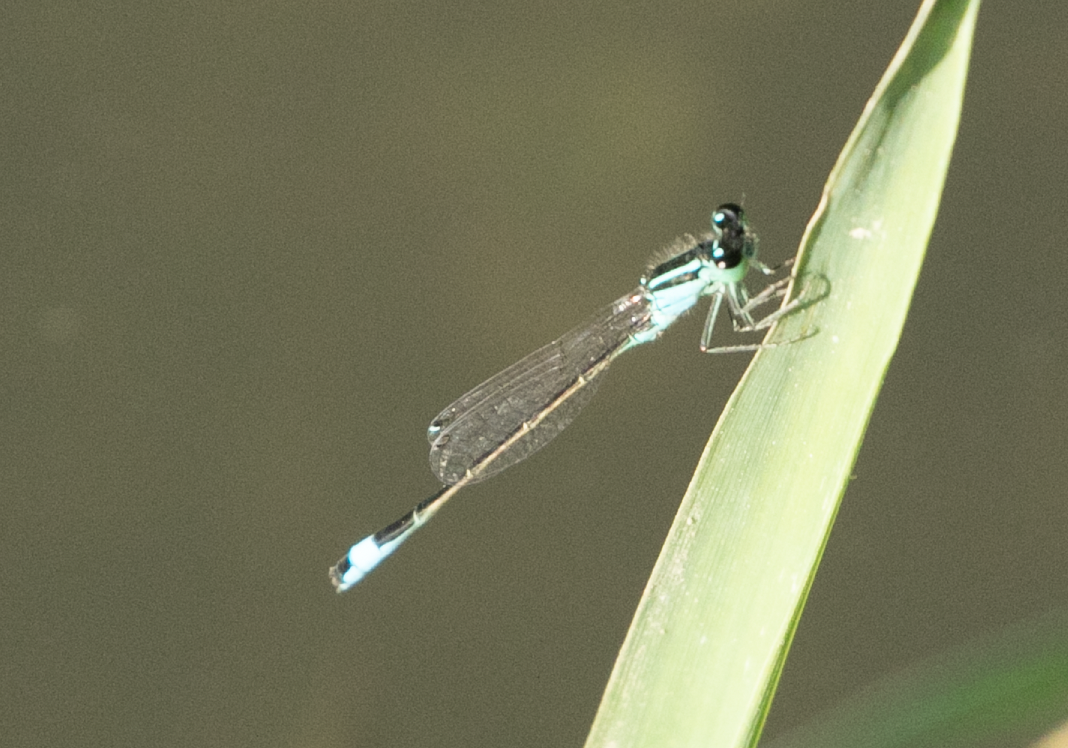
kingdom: Animalia
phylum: Arthropoda
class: Insecta
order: Odonata
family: Coenagrionidae
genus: Ischnura
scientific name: Ischnura elegans
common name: Blue-tailed damselfly
